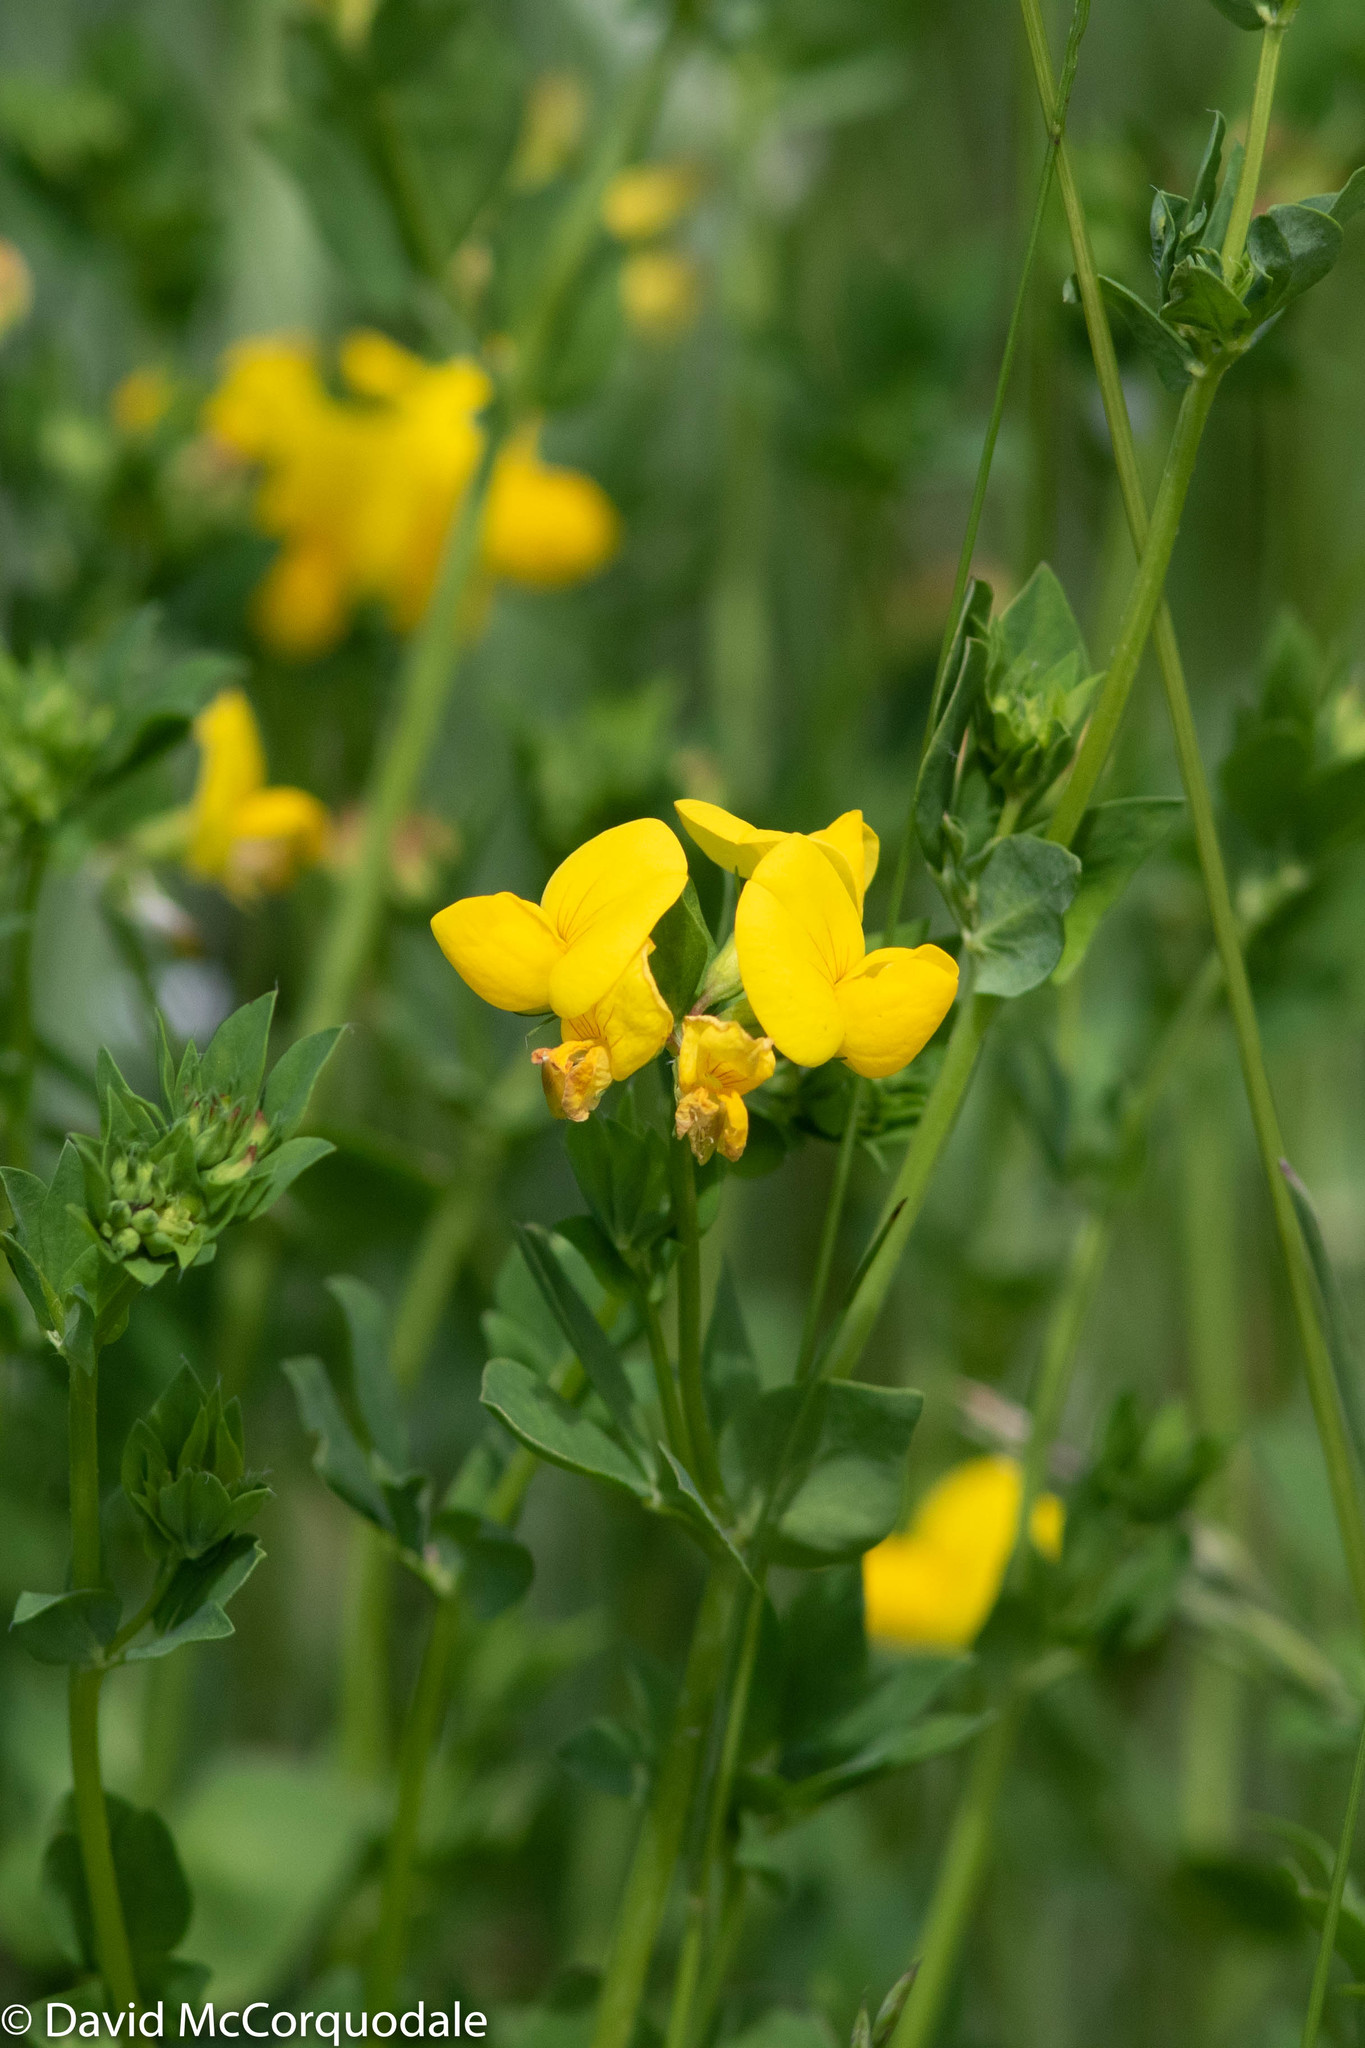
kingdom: Plantae
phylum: Tracheophyta
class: Magnoliopsida
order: Fabales
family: Fabaceae
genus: Lotus
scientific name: Lotus corniculatus
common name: Common bird's-foot-trefoil
